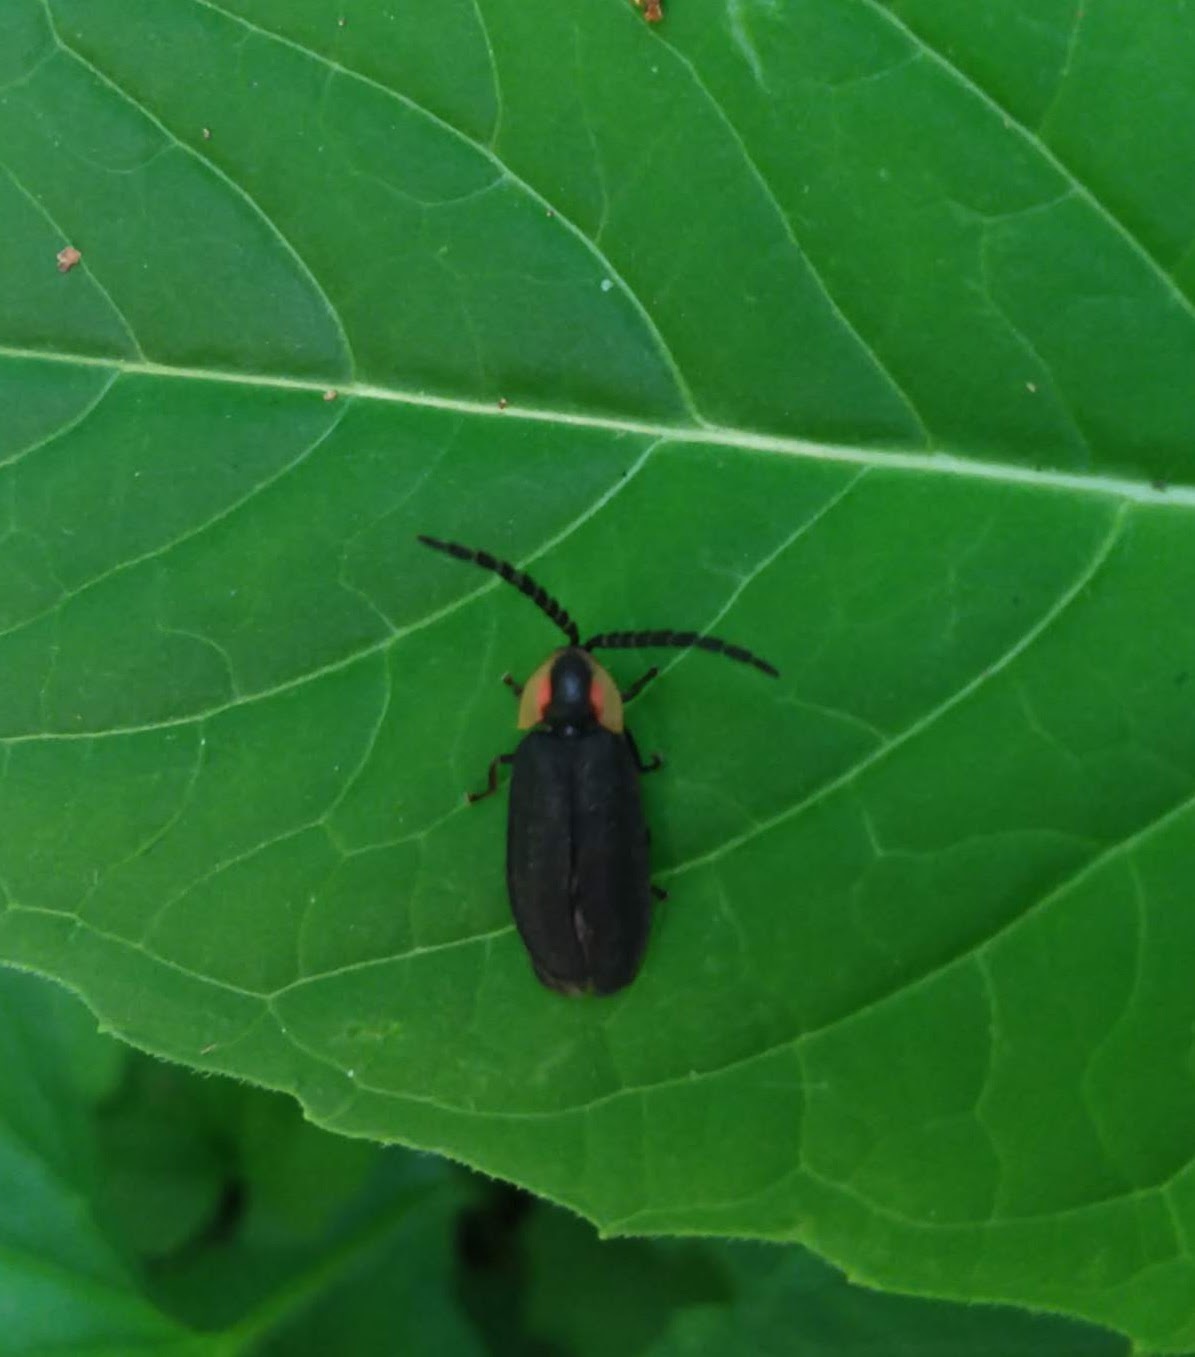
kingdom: Animalia
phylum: Arthropoda
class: Insecta
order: Coleoptera
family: Lampyridae
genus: Lucidota
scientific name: Lucidota atra
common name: Black firefly
